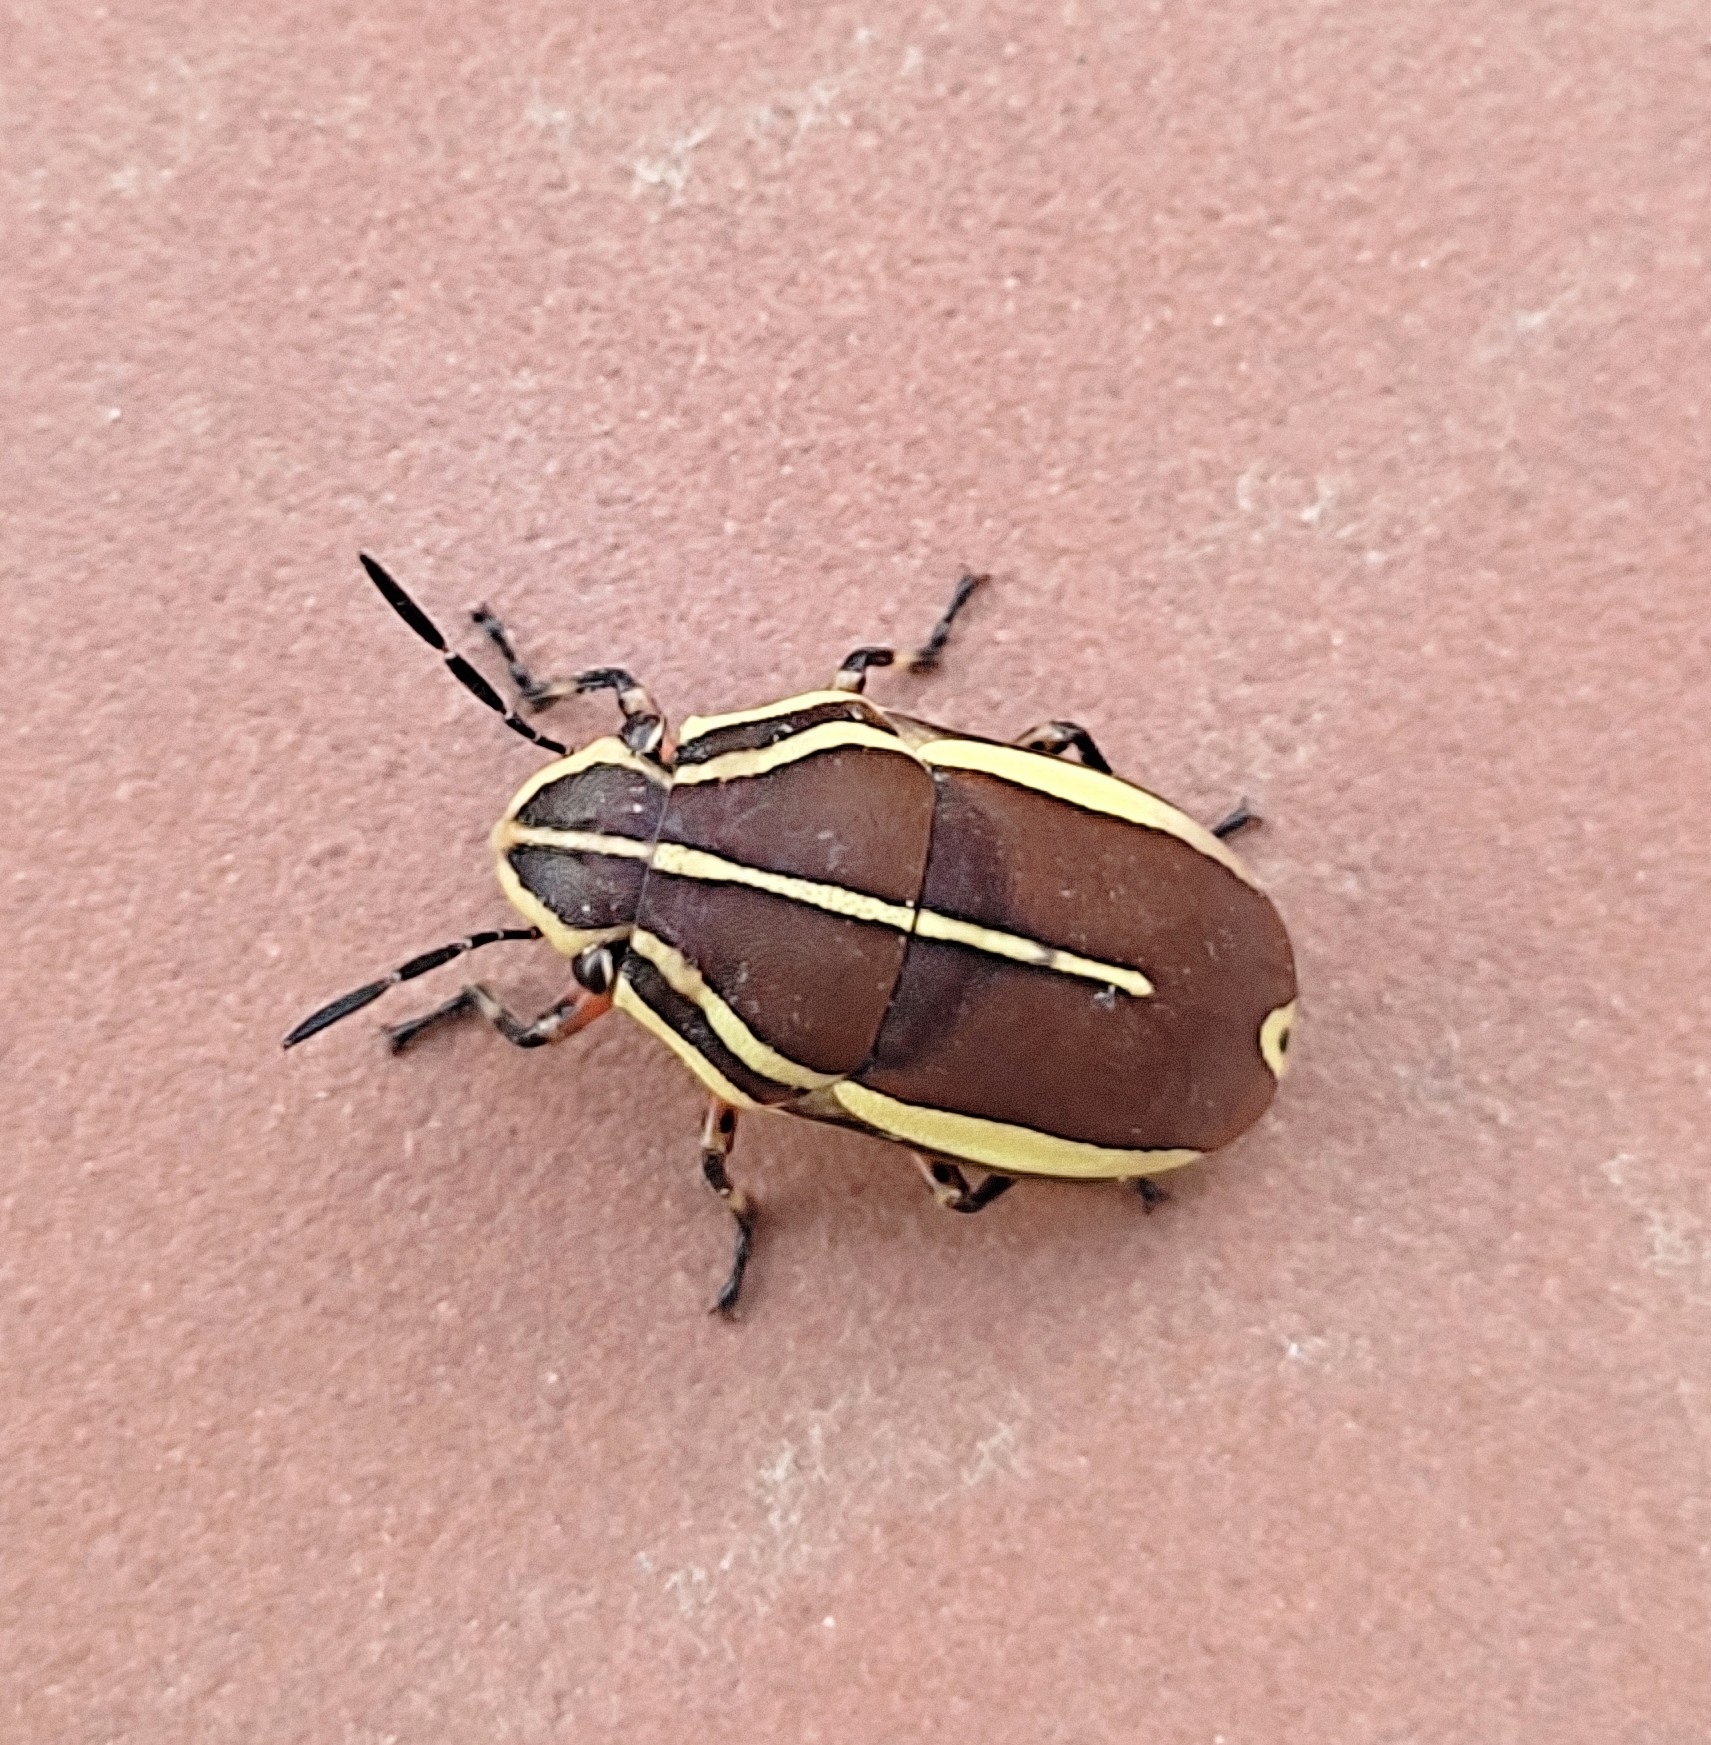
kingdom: Animalia
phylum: Arthropoda
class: Insecta
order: Hemiptera
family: Scutelleridae
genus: Agonosoma
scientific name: Agonosoma flavolineata
